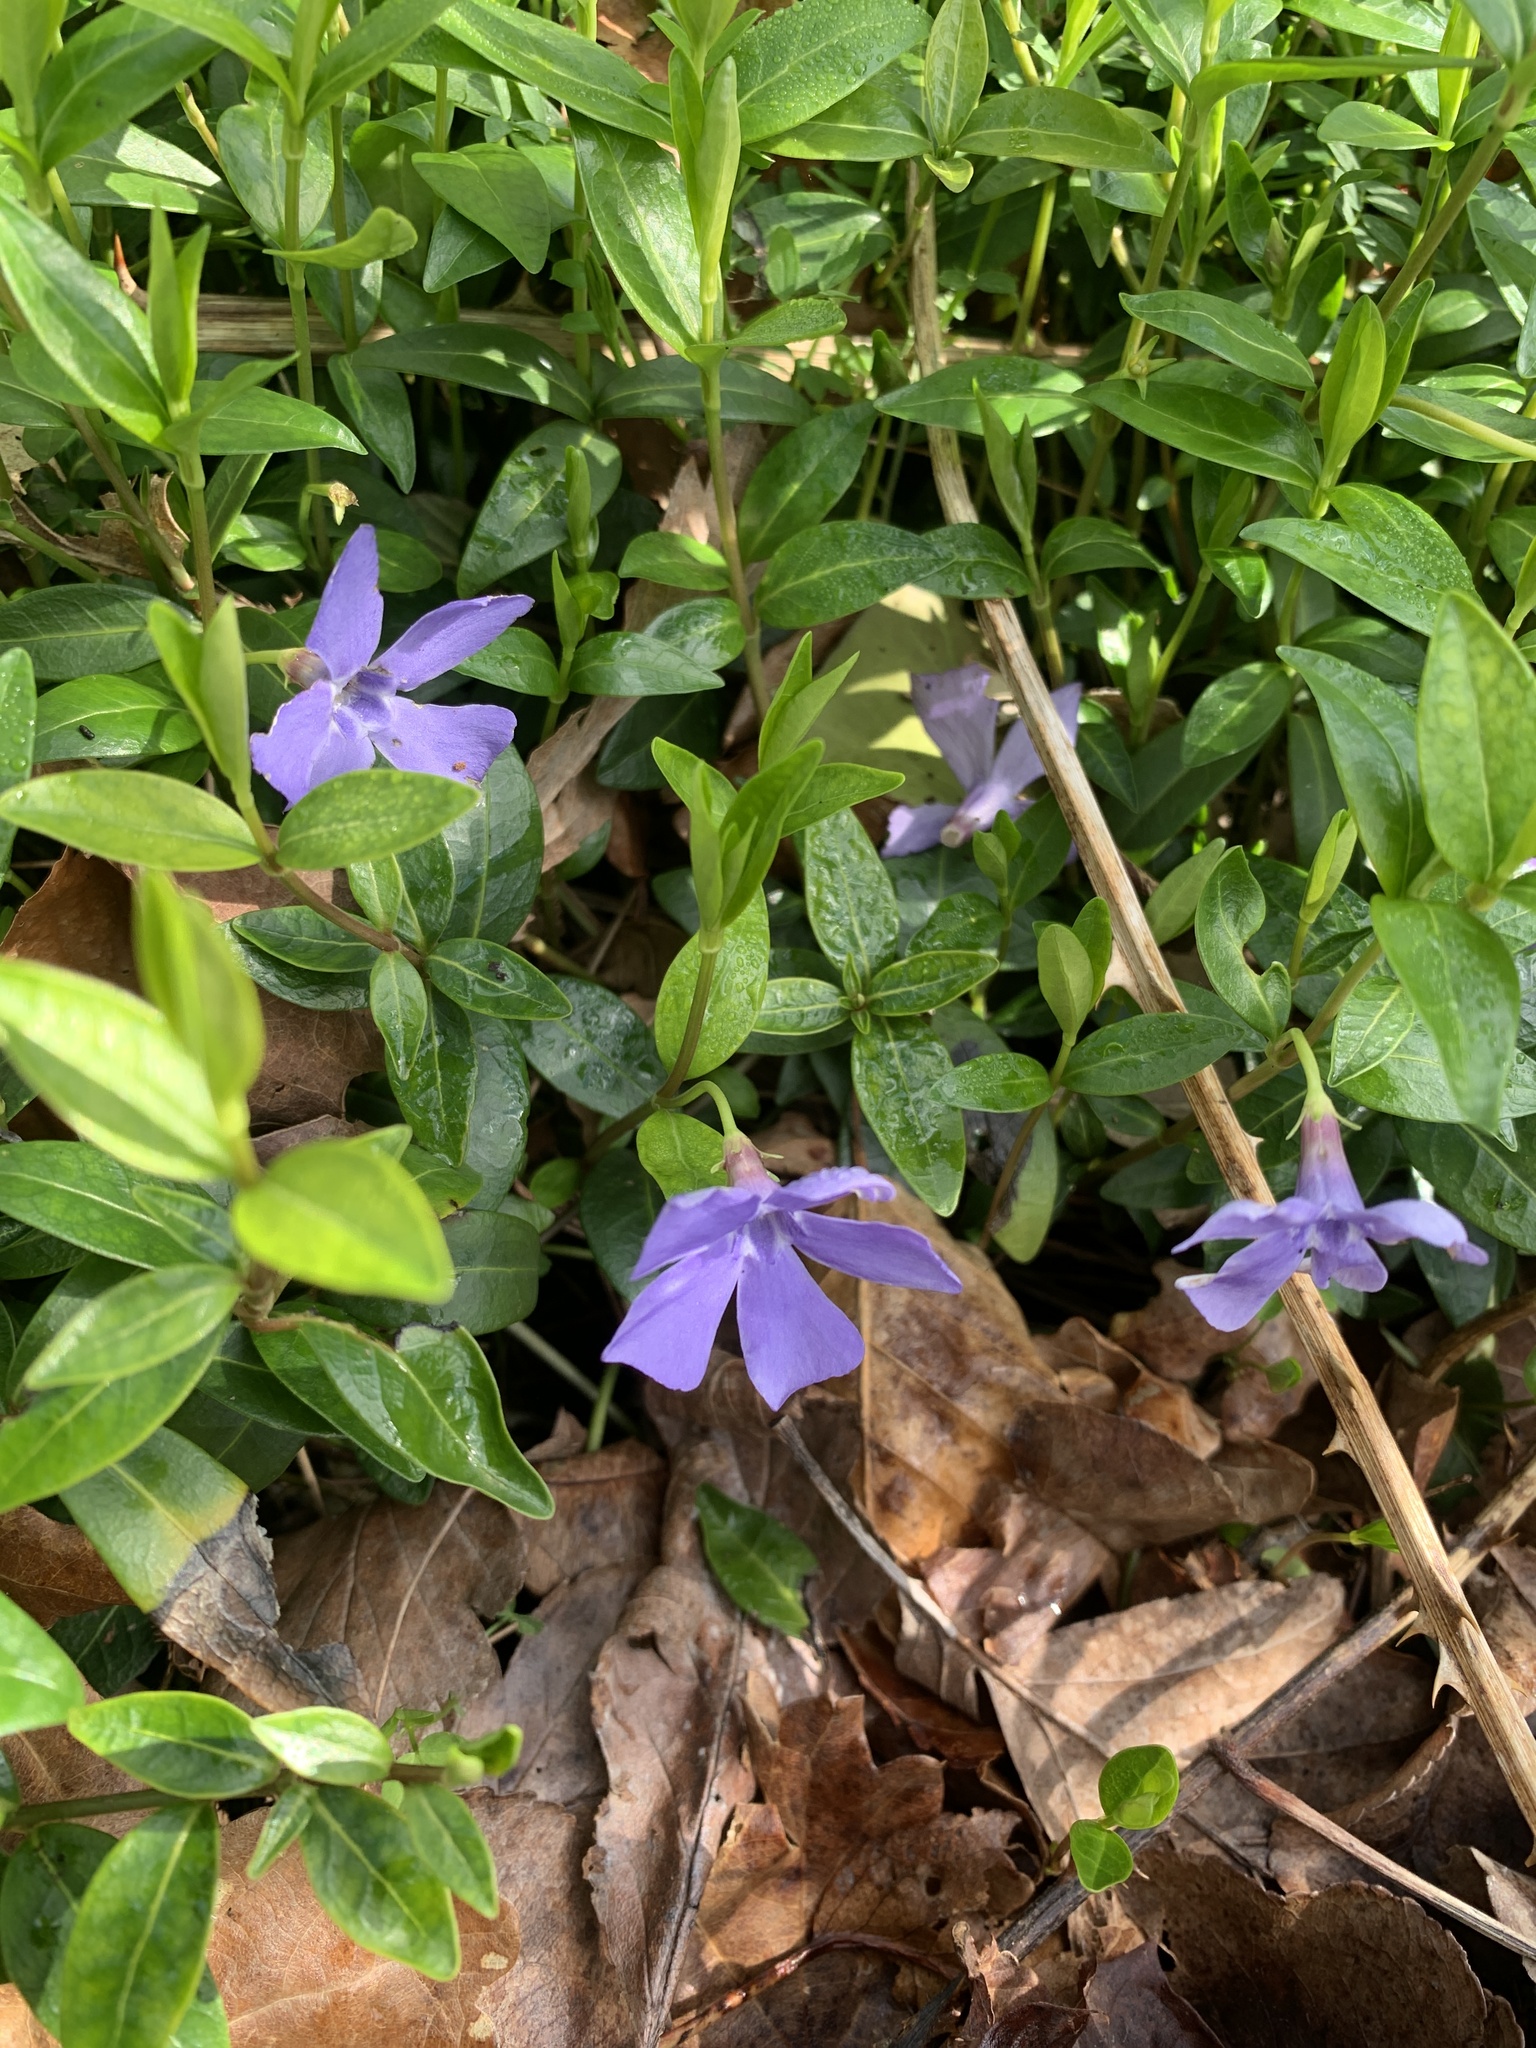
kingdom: Plantae
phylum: Tracheophyta
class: Magnoliopsida
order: Gentianales
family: Apocynaceae
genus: Vinca
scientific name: Vinca minor
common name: Lesser periwinkle
